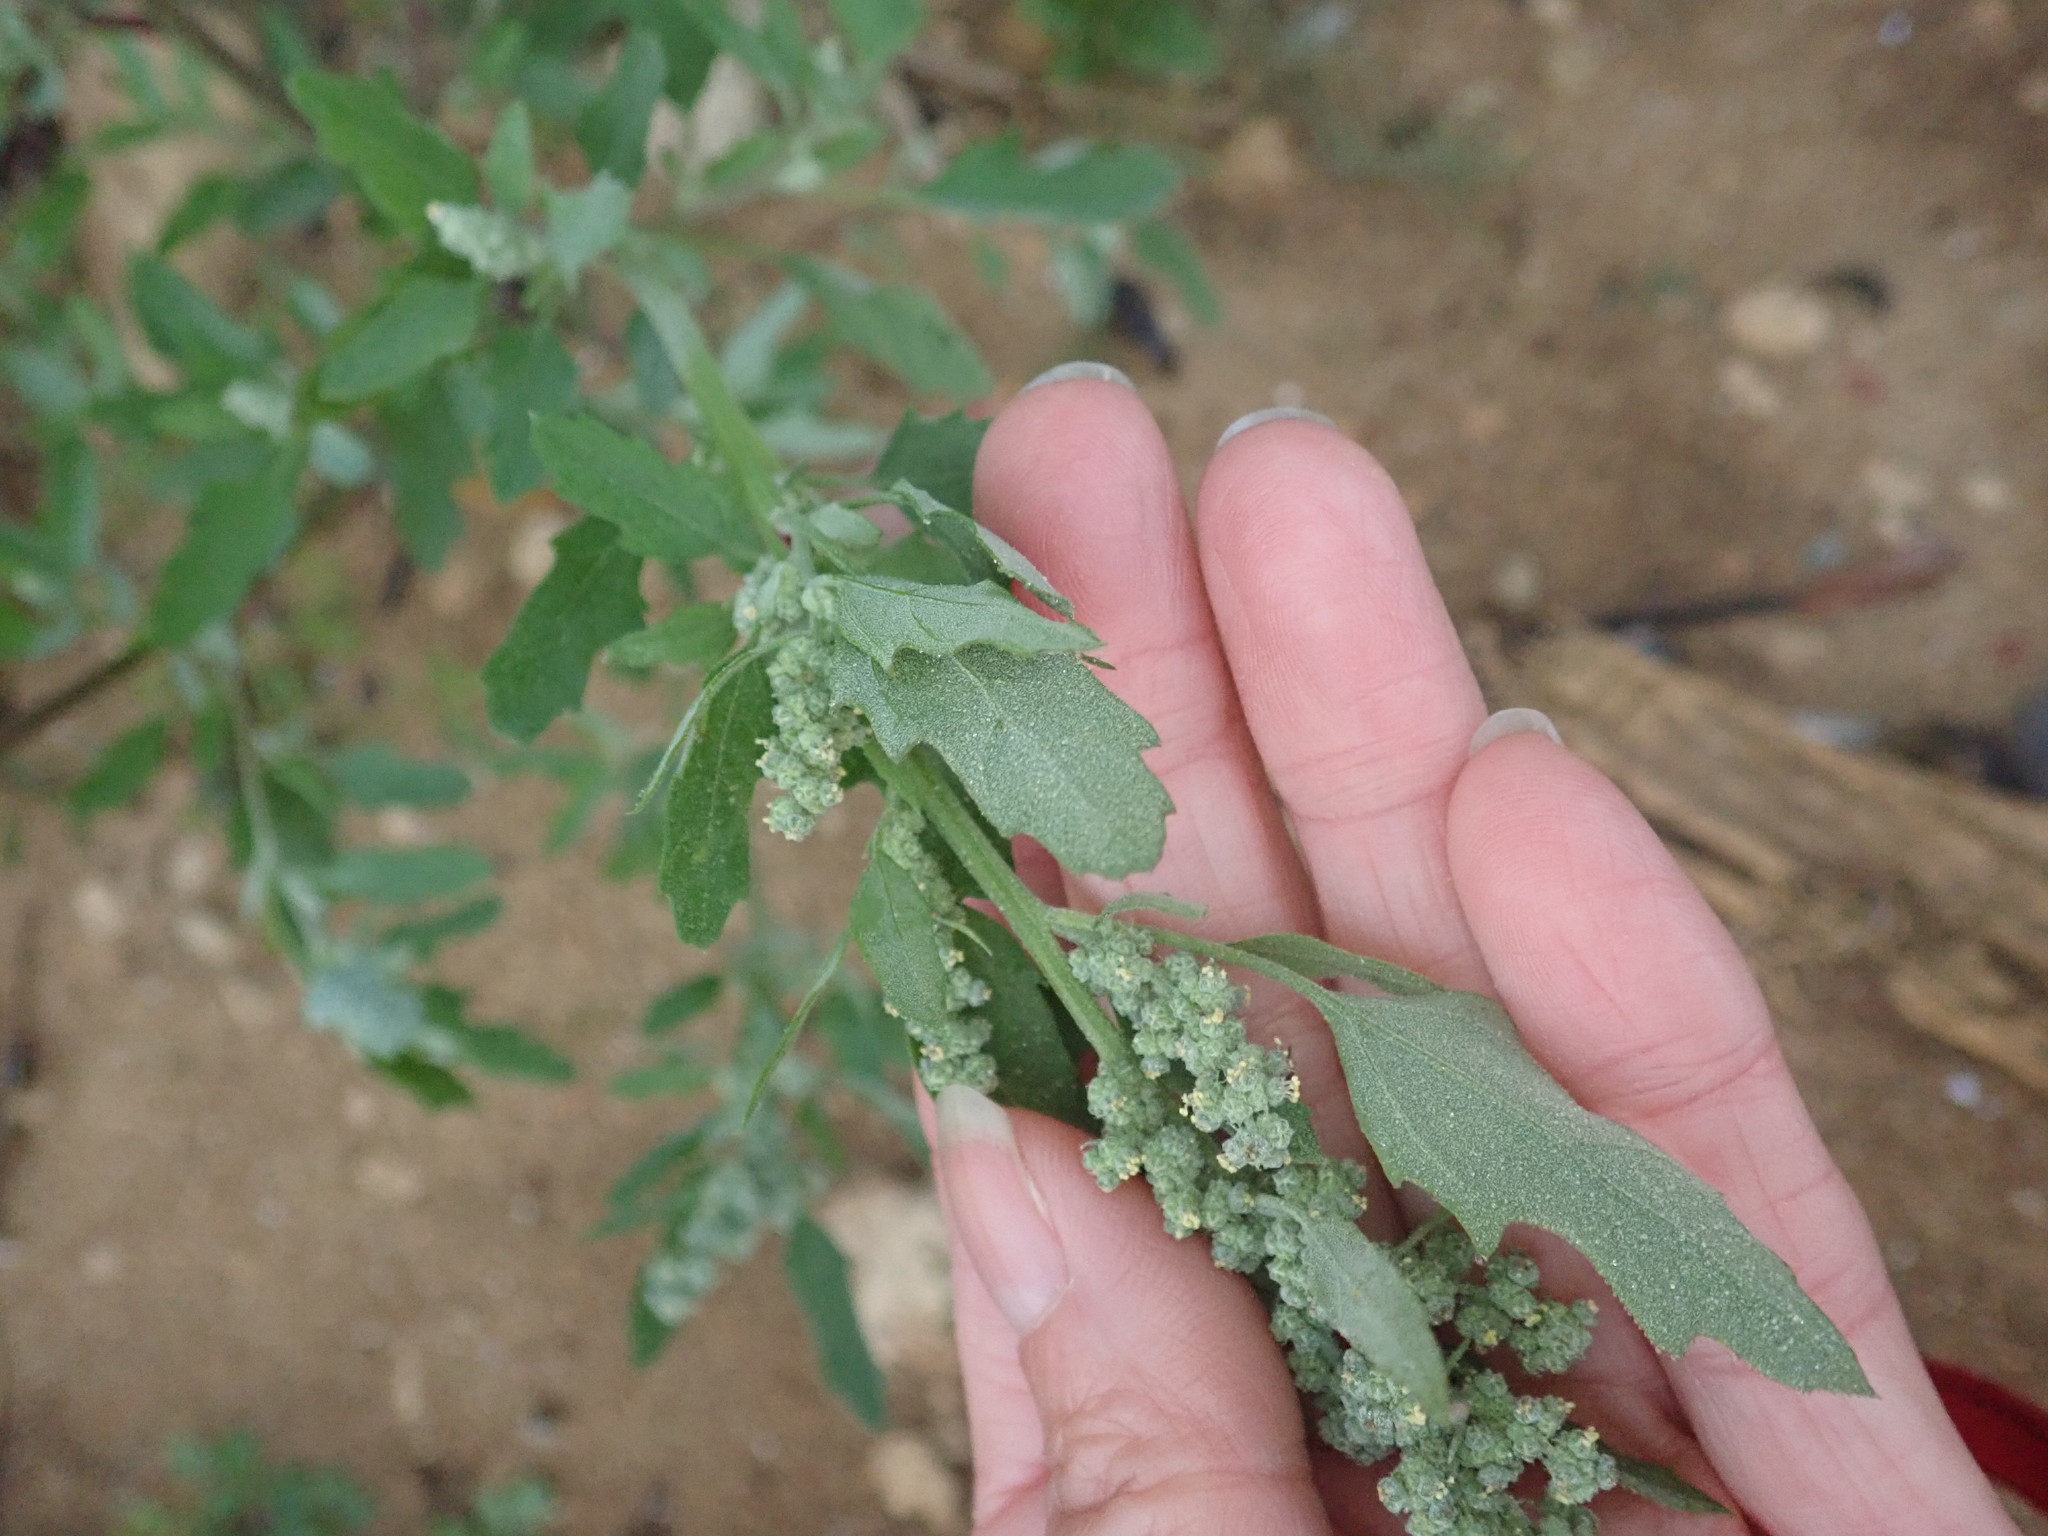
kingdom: Plantae
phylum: Tracheophyta
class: Magnoliopsida
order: Caryophyllales
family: Amaranthaceae
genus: Chenopodium
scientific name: Chenopodium ficifolium
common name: Fig-leaved goosefoot
